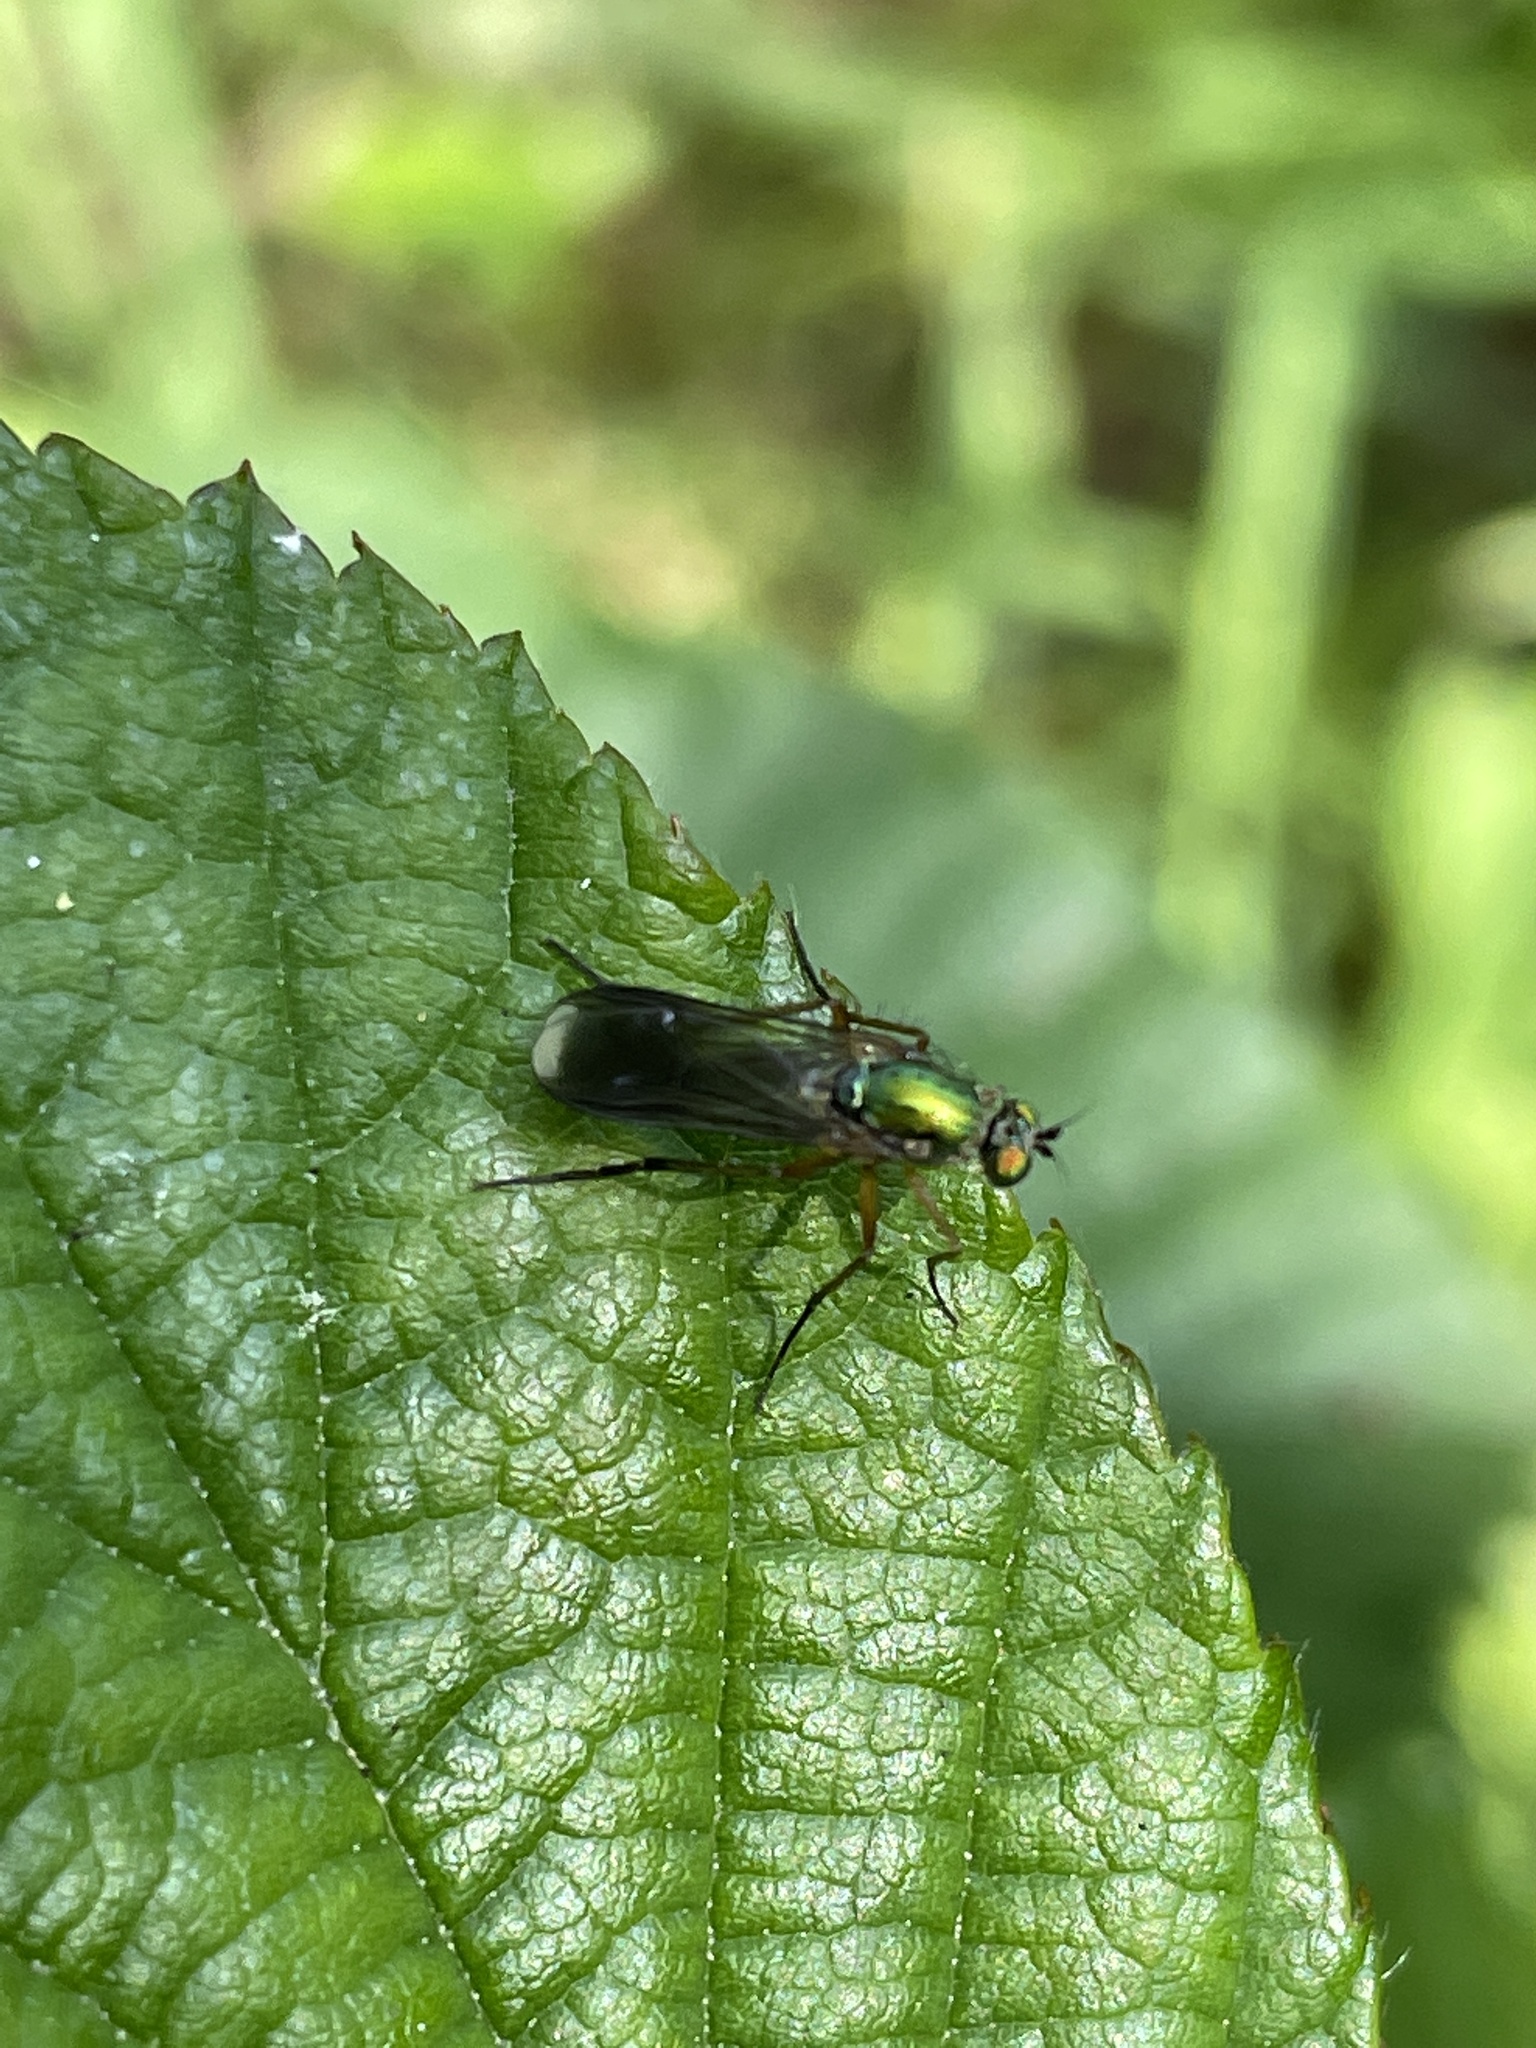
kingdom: Animalia
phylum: Arthropoda
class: Insecta
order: Diptera
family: Dolichopodidae
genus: Poecilobothrus
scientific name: Poecilobothrus nobilitatus
